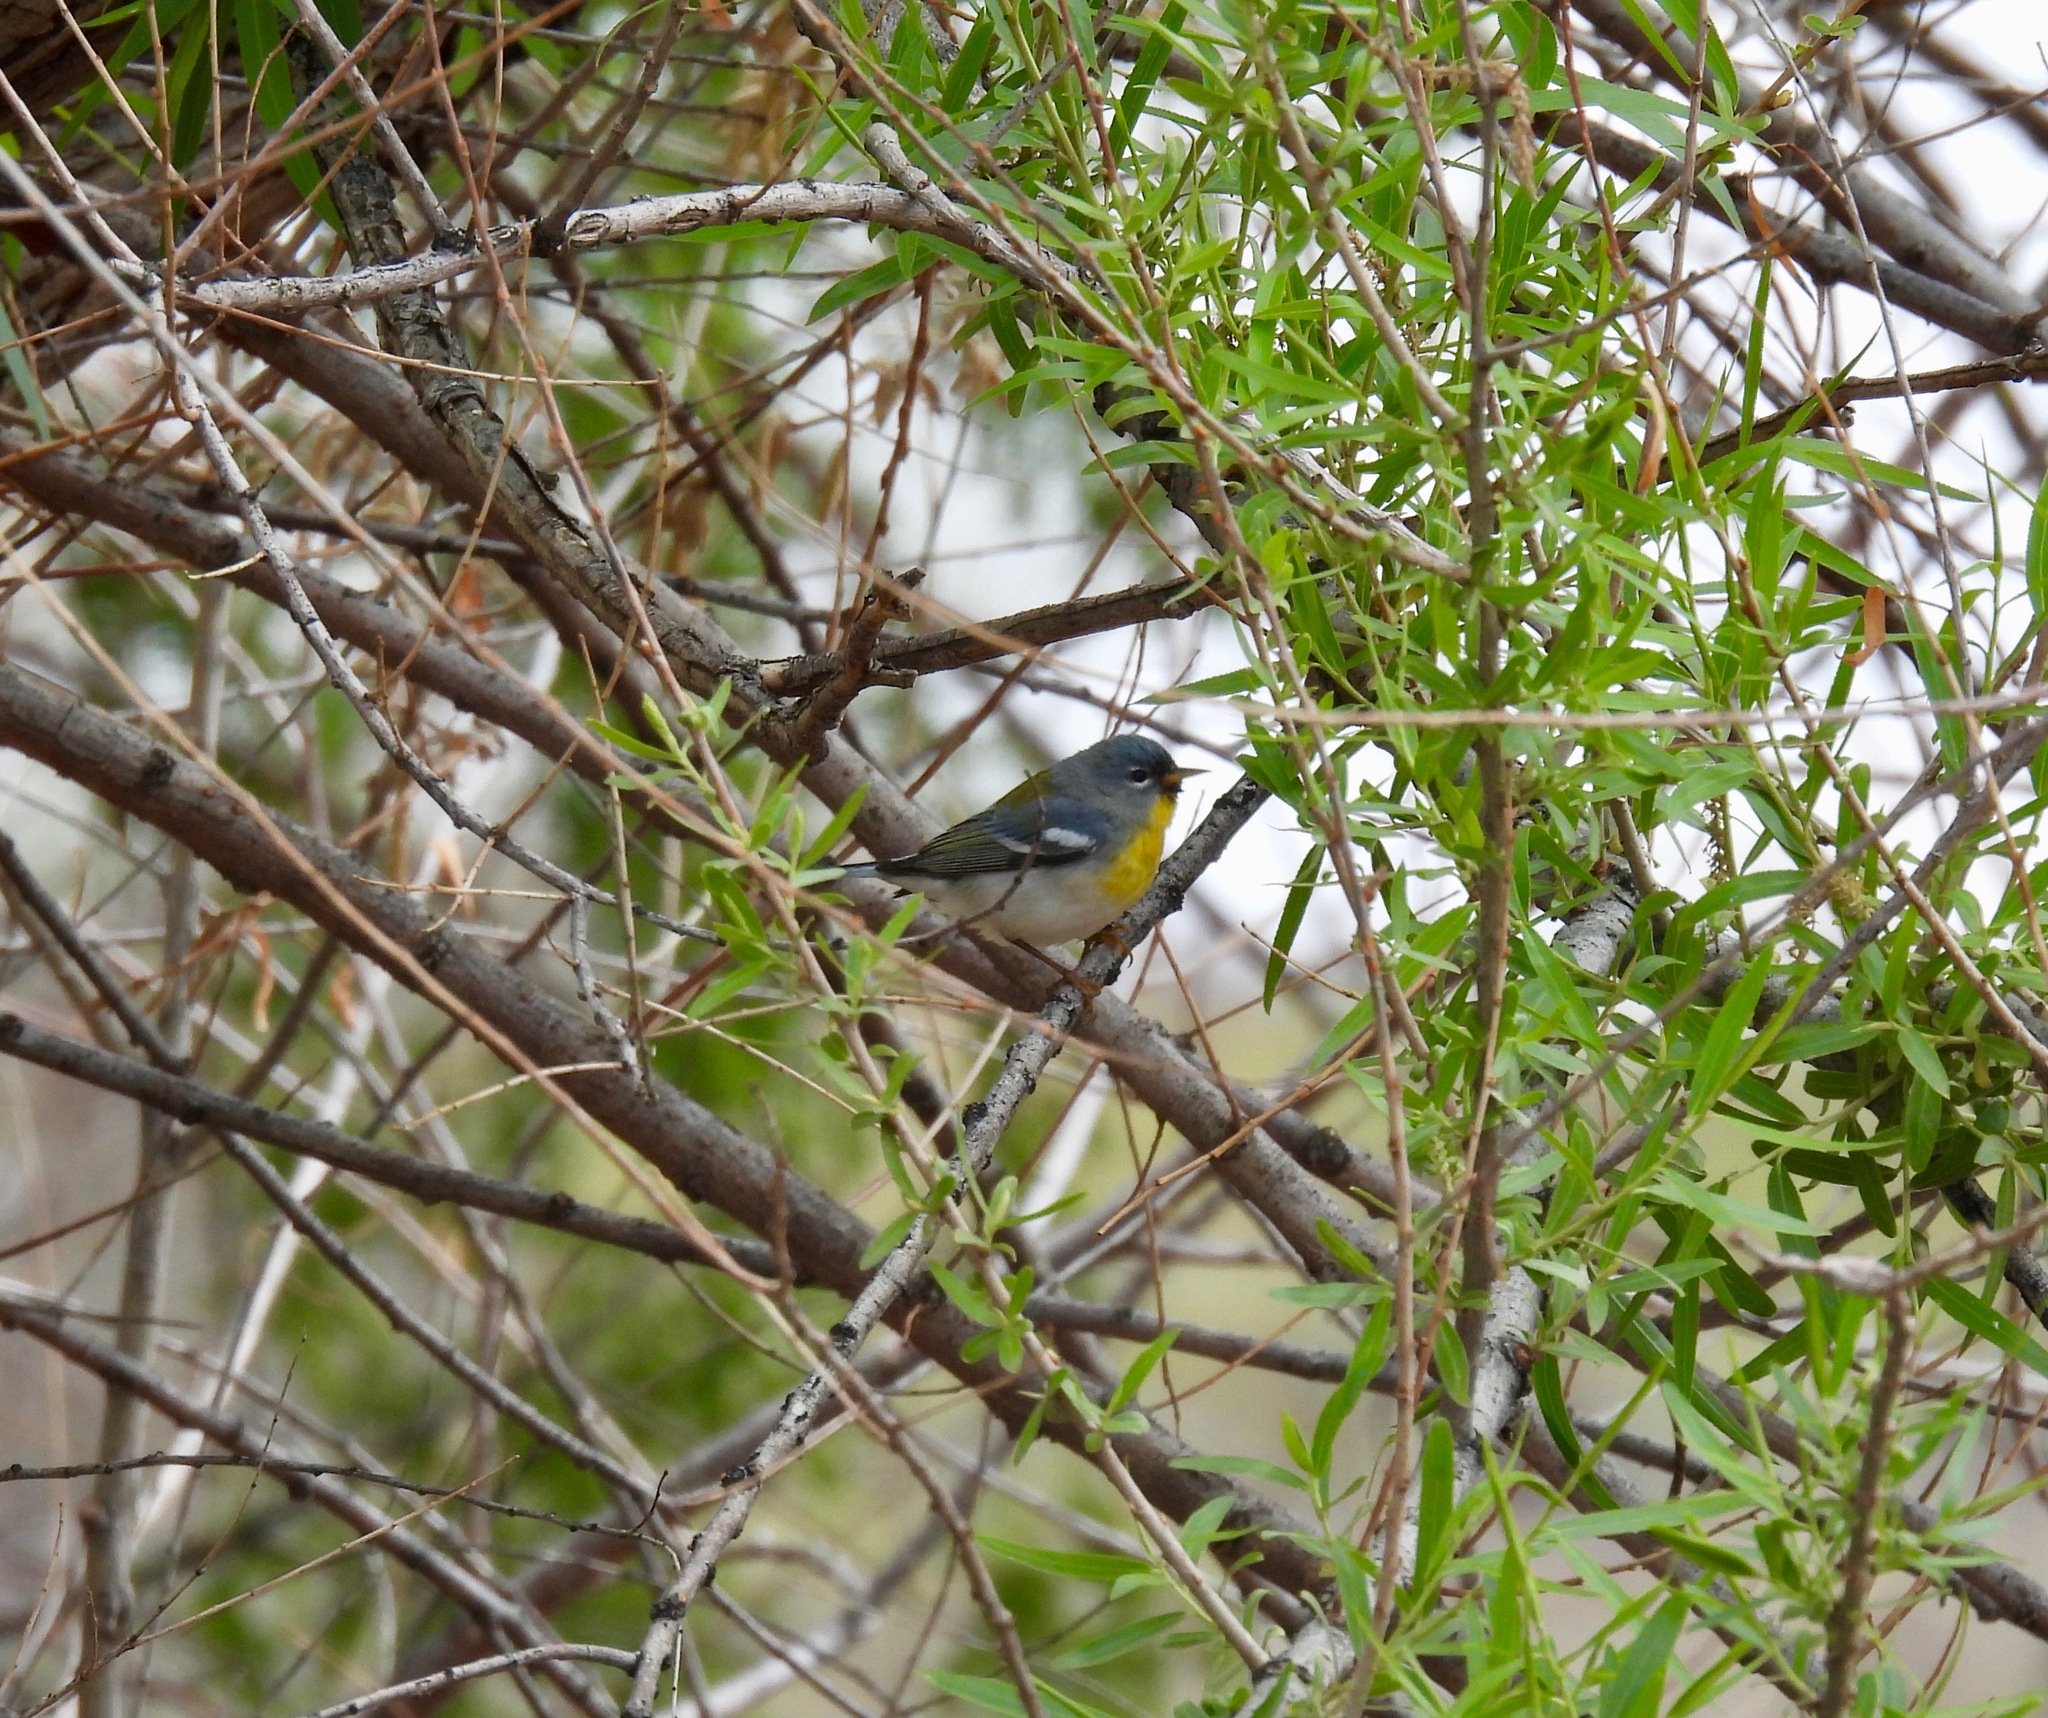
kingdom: Animalia
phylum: Chordata
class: Aves
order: Passeriformes
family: Parulidae
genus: Setophaga
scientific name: Setophaga americana
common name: Northern parula
